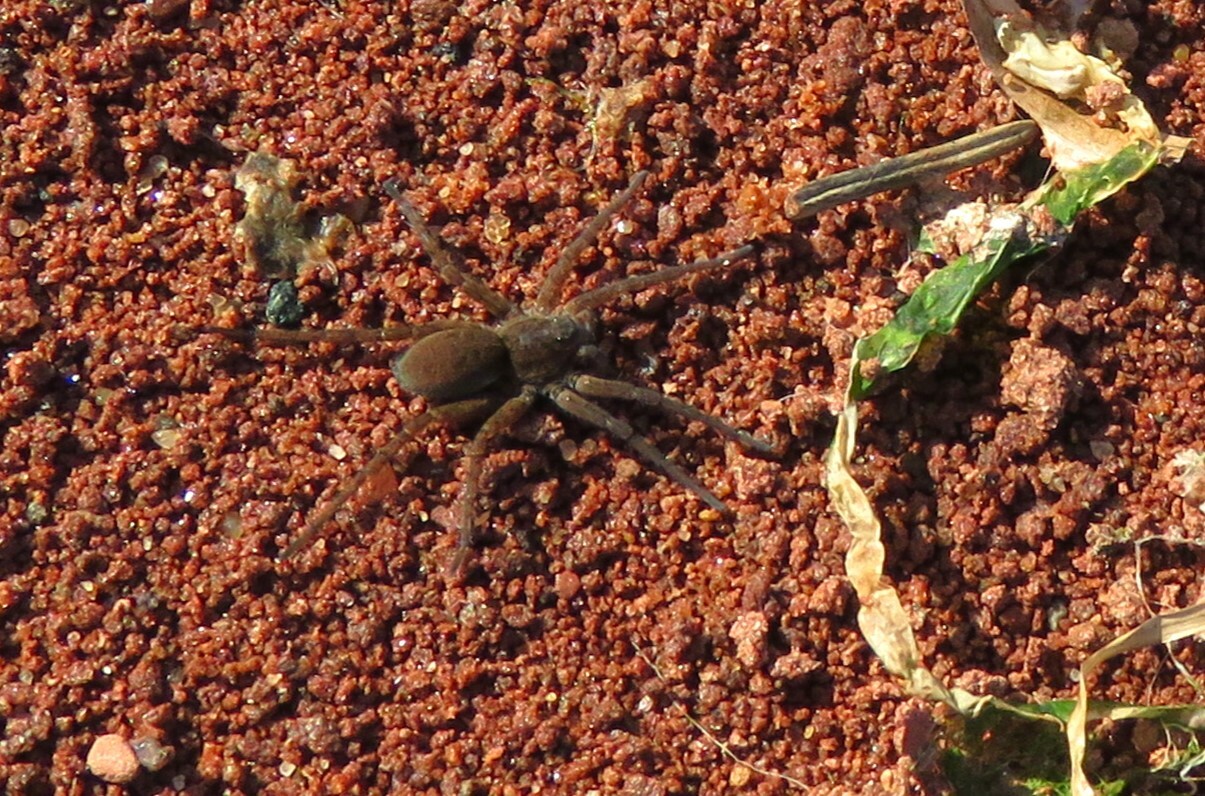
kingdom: Animalia
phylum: Arthropoda
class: Arachnida
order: Araneae
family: Lycosidae
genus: Arctosa
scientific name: Arctosa littoralis
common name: Wolf spiders
